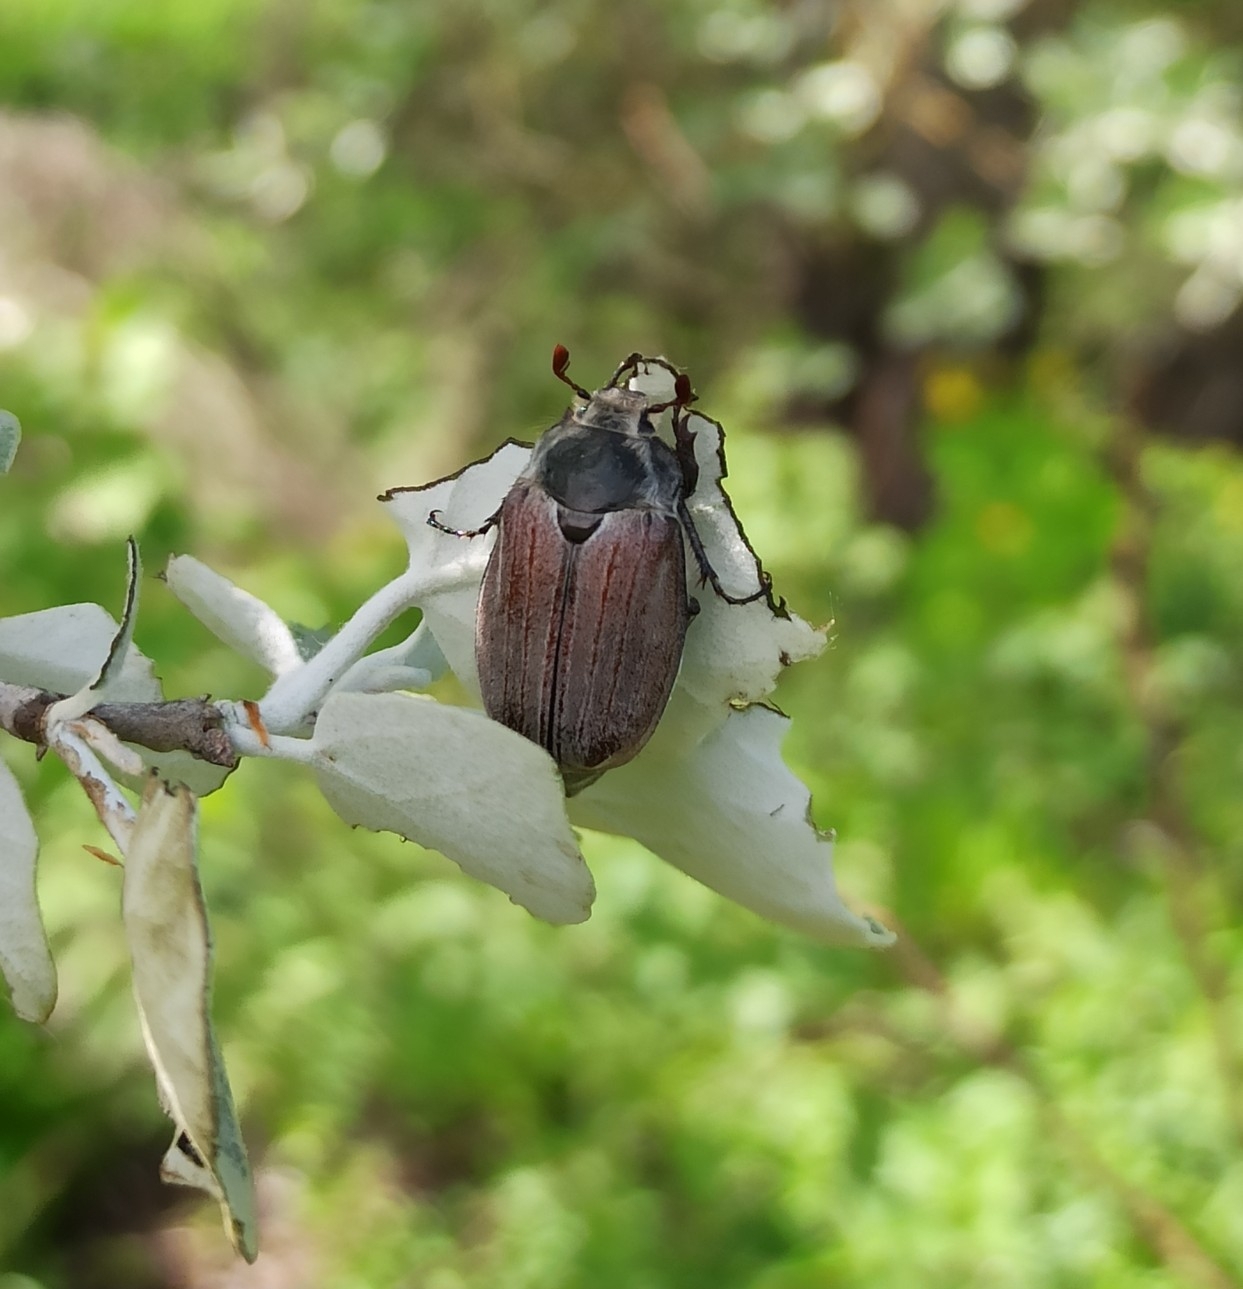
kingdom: Animalia
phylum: Arthropoda
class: Insecta
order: Coleoptera
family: Scarabaeidae
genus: Melolontha
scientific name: Melolontha hippocastani
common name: Chestnut cockchafer
